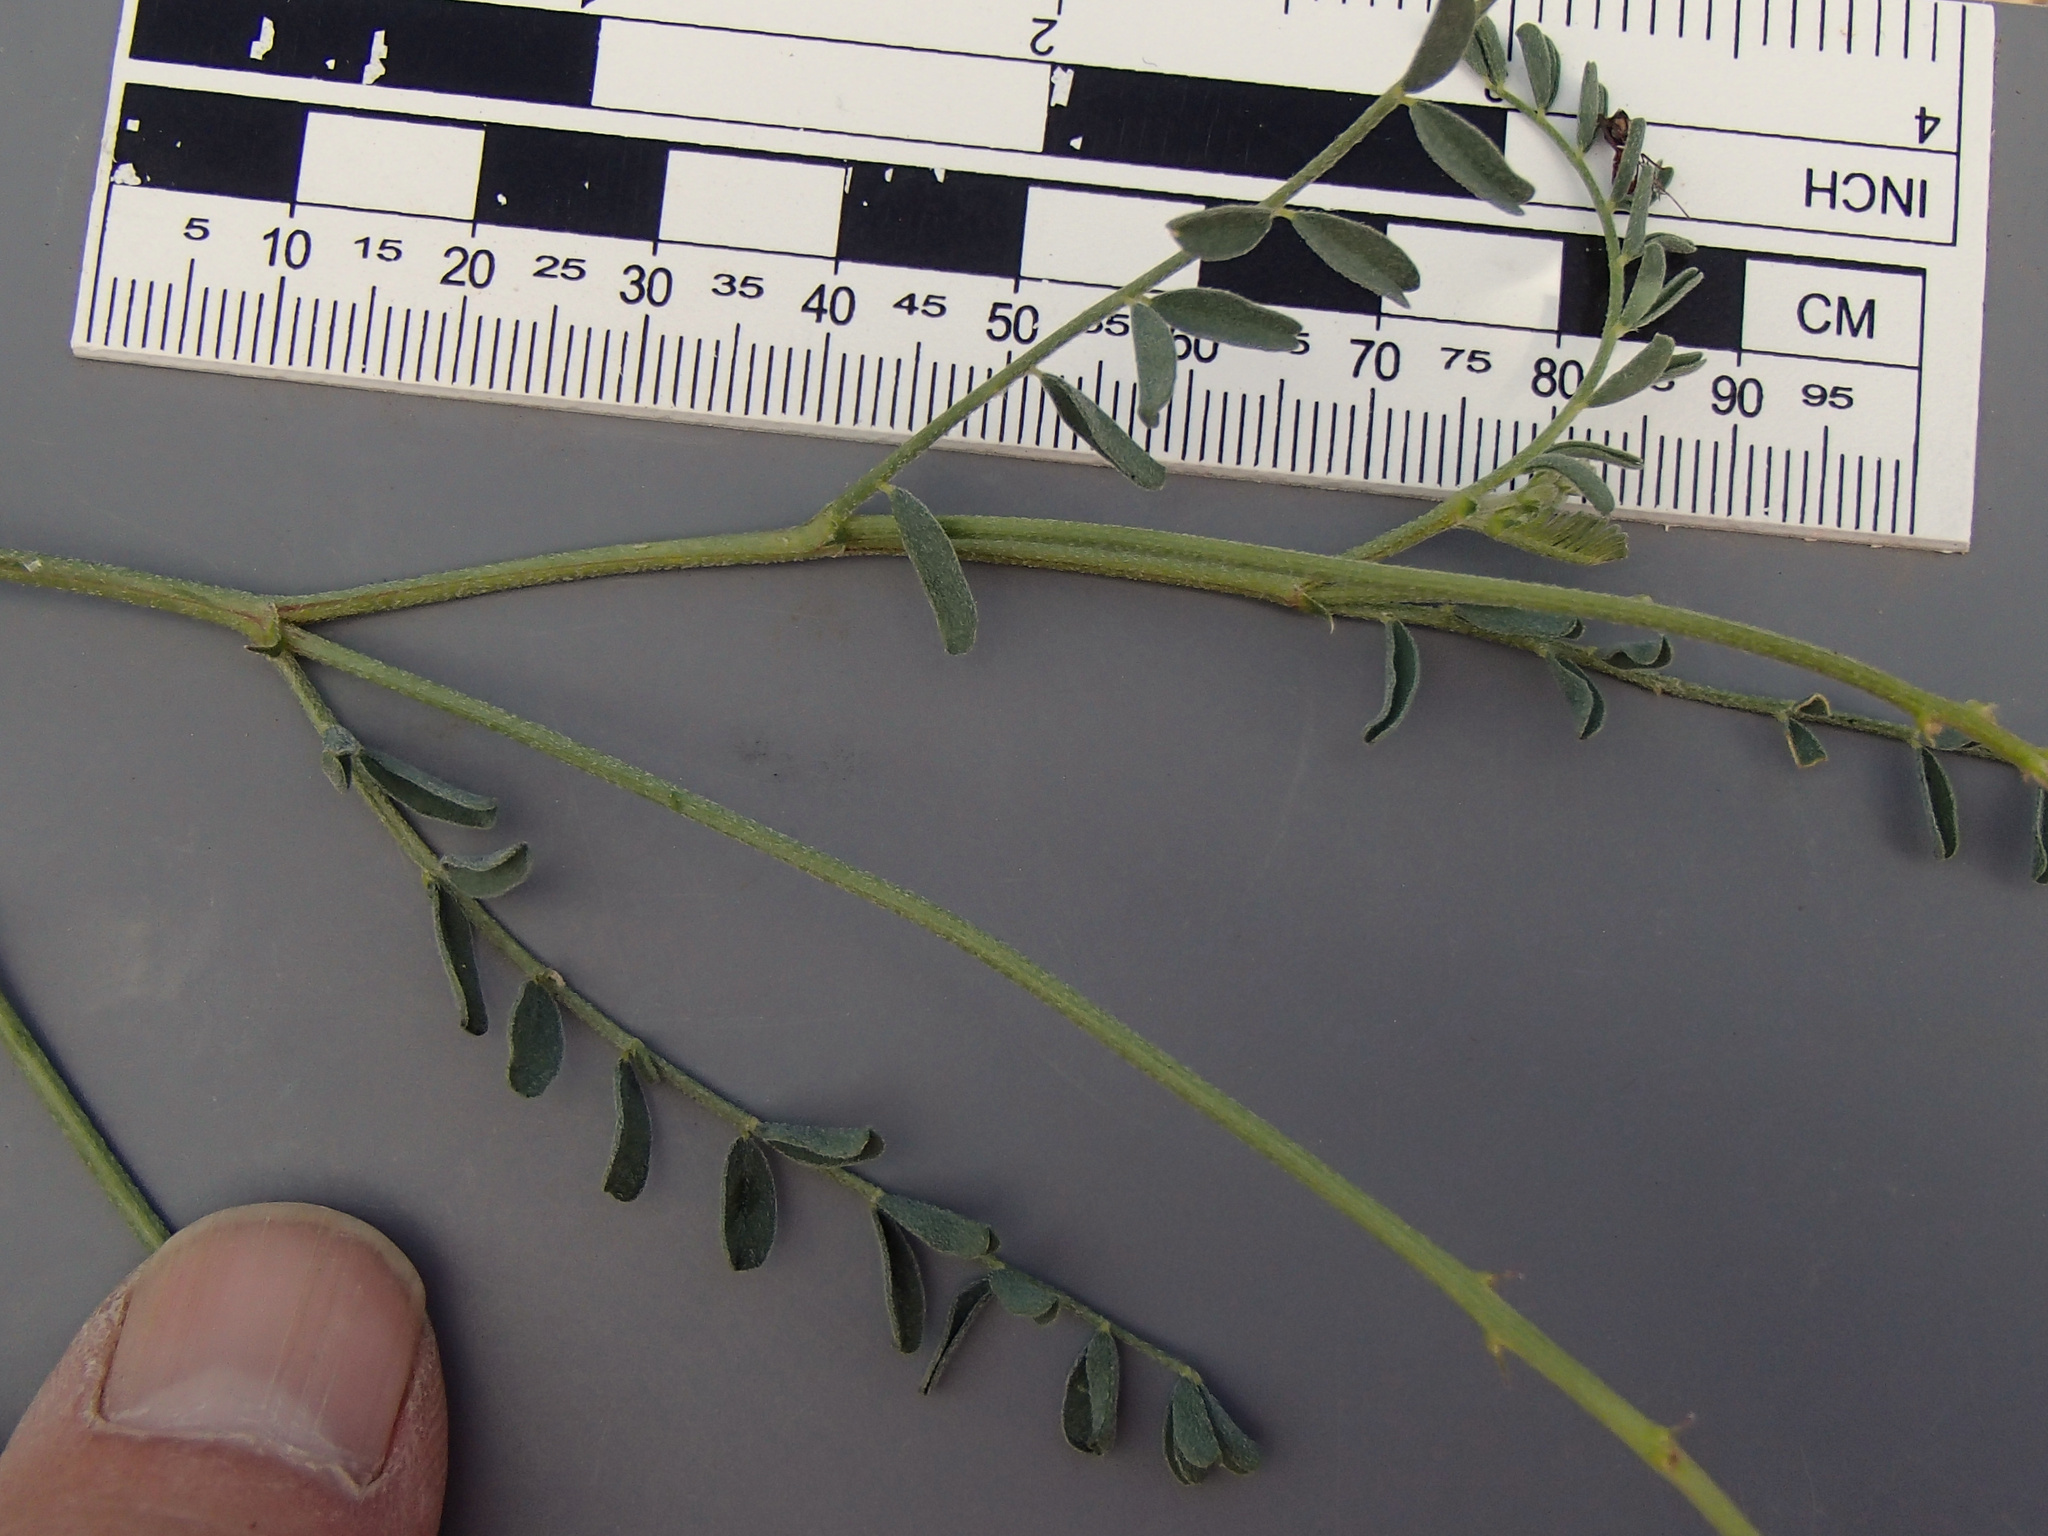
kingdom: Plantae
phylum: Tracheophyta
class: Magnoliopsida
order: Fabales
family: Fabaceae
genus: Astragalus
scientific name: Astragalus curvicarpus
